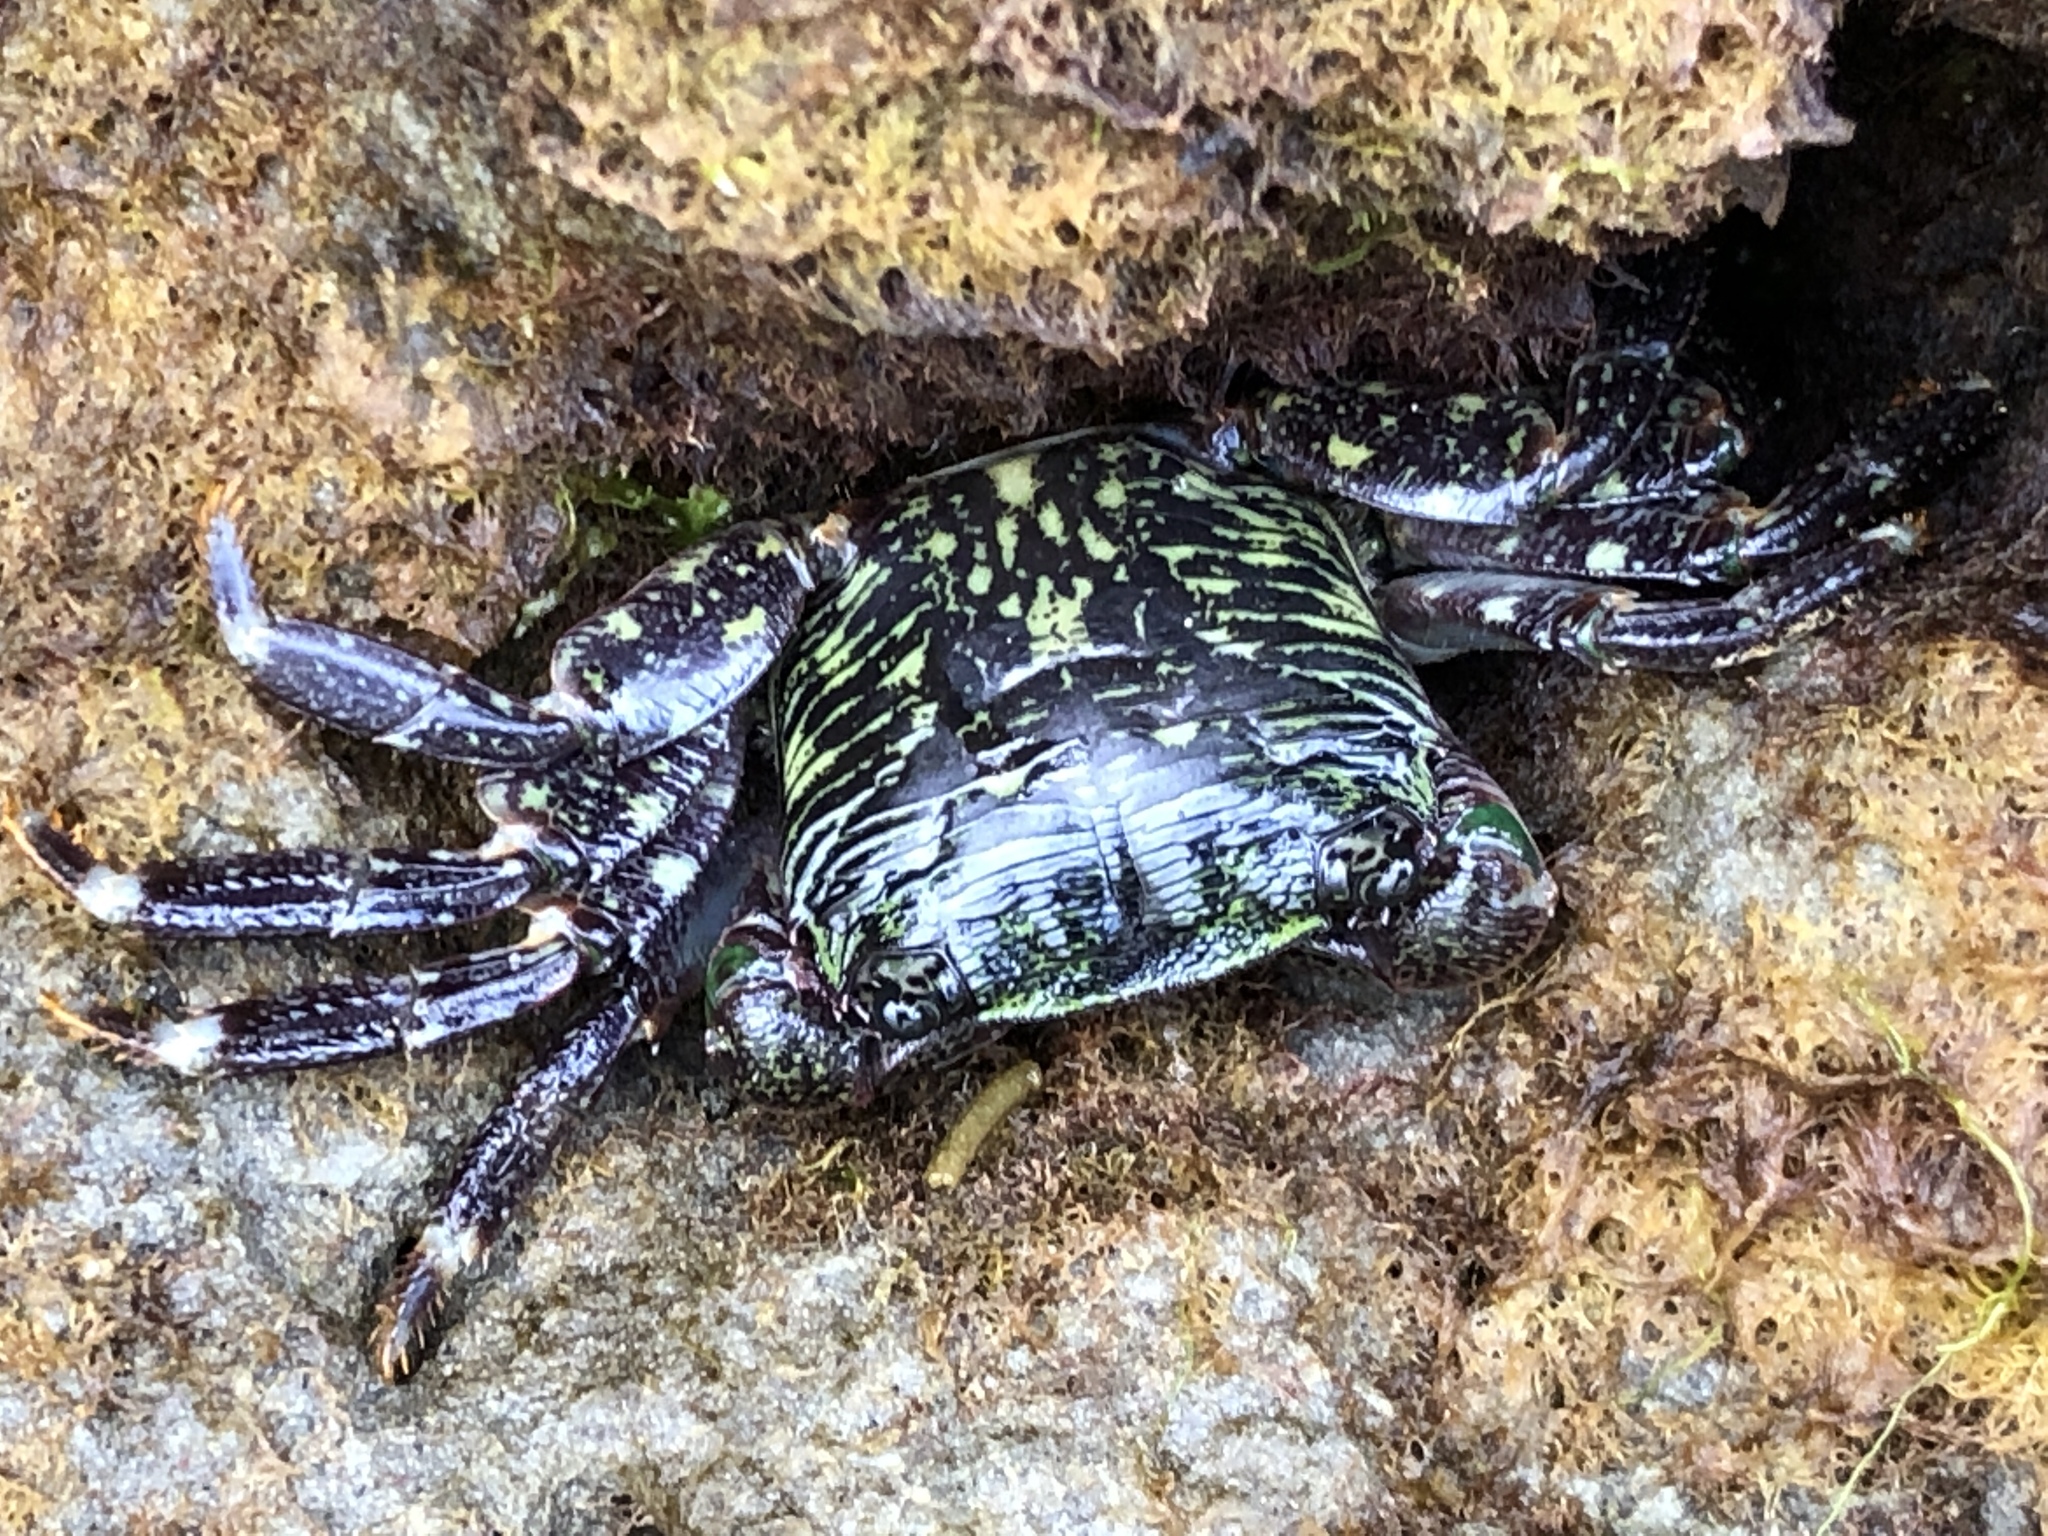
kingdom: Animalia
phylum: Arthropoda
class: Malacostraca
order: Decapoda
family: Grapsidae
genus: Pachygrapsus
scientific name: Pachygrapsus crassipes
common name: Striped shore crab
